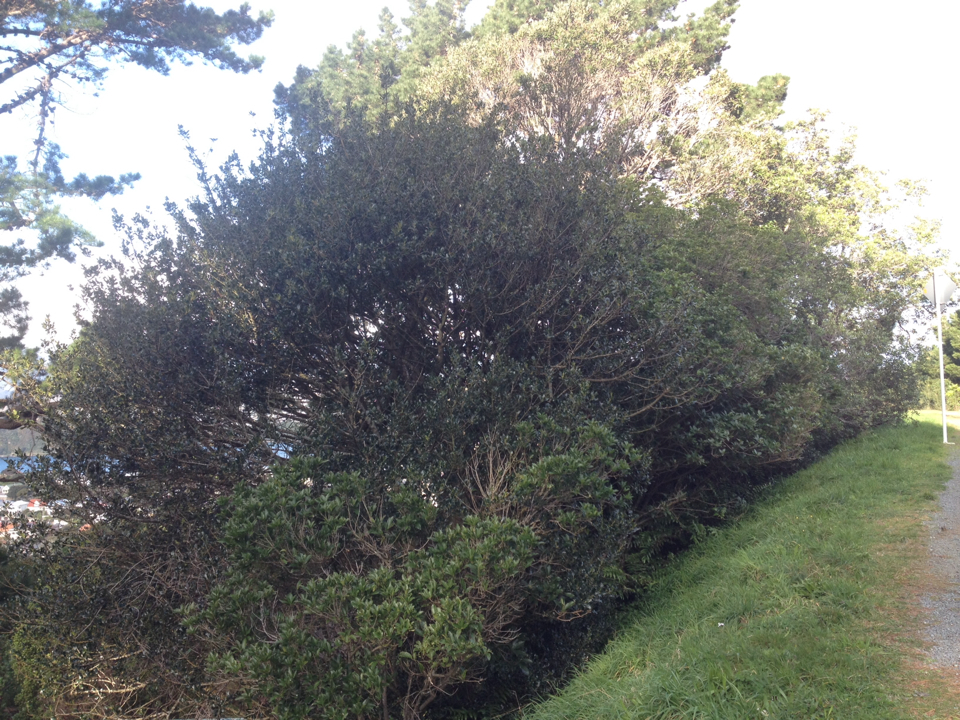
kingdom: Plantae
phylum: Tracheophyta
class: Magnoliopsida
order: Aquifoliales
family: Aquifoliaceae
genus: Ilex
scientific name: Ilex aquifolium
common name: English holly
